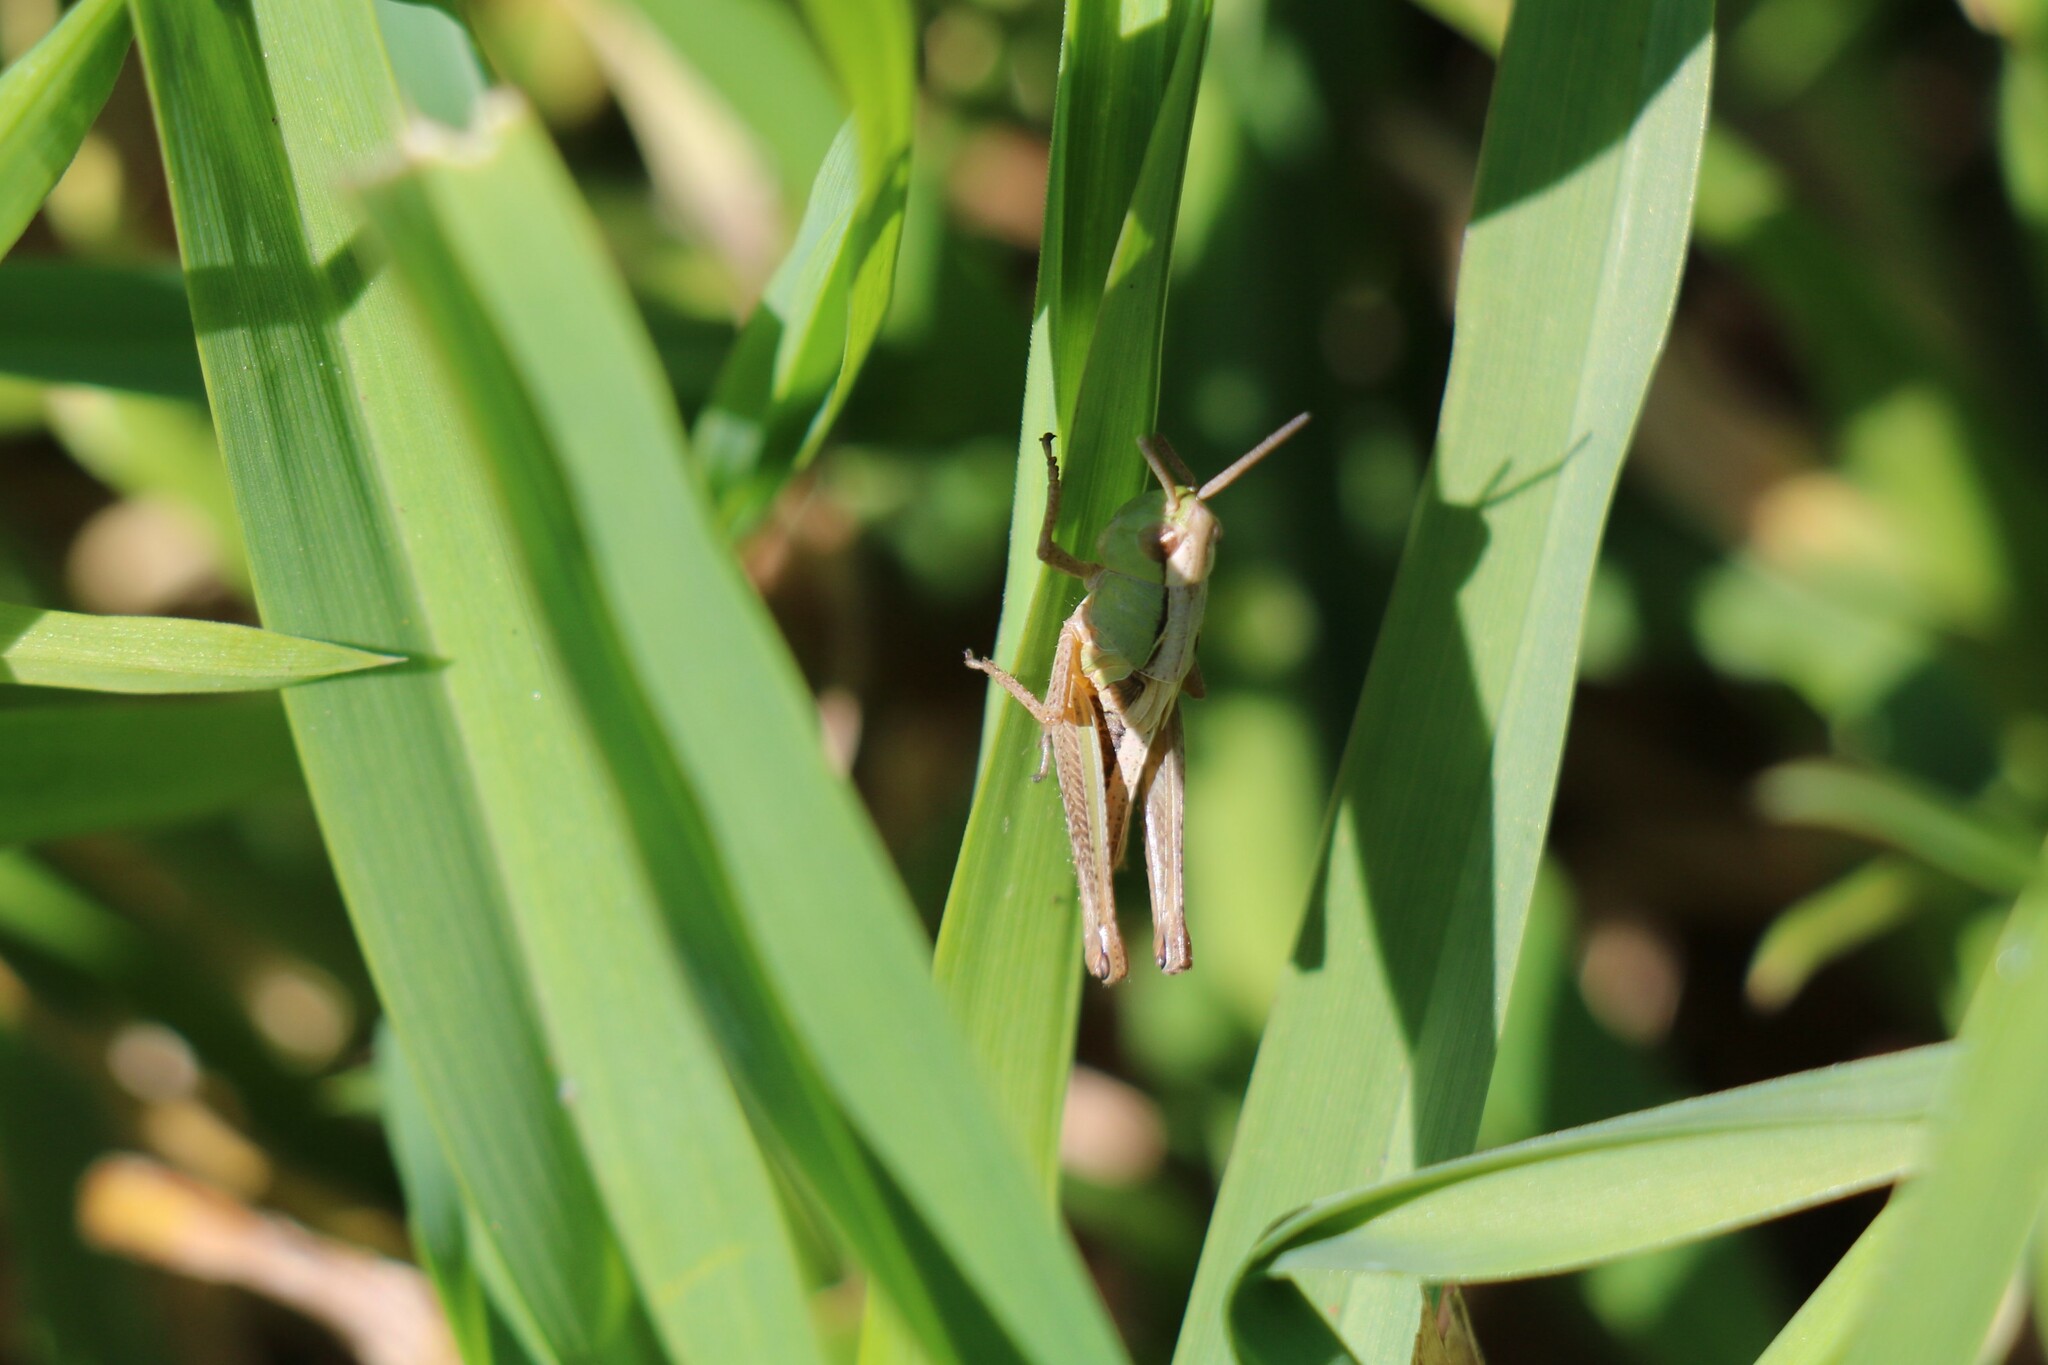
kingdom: Animalia
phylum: Arthropoda
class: Insecta
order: Orthoptera
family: Acrididae
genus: Pseudochorthippus
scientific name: Pseudochorthippus parallelus
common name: Meadow grasshopper
